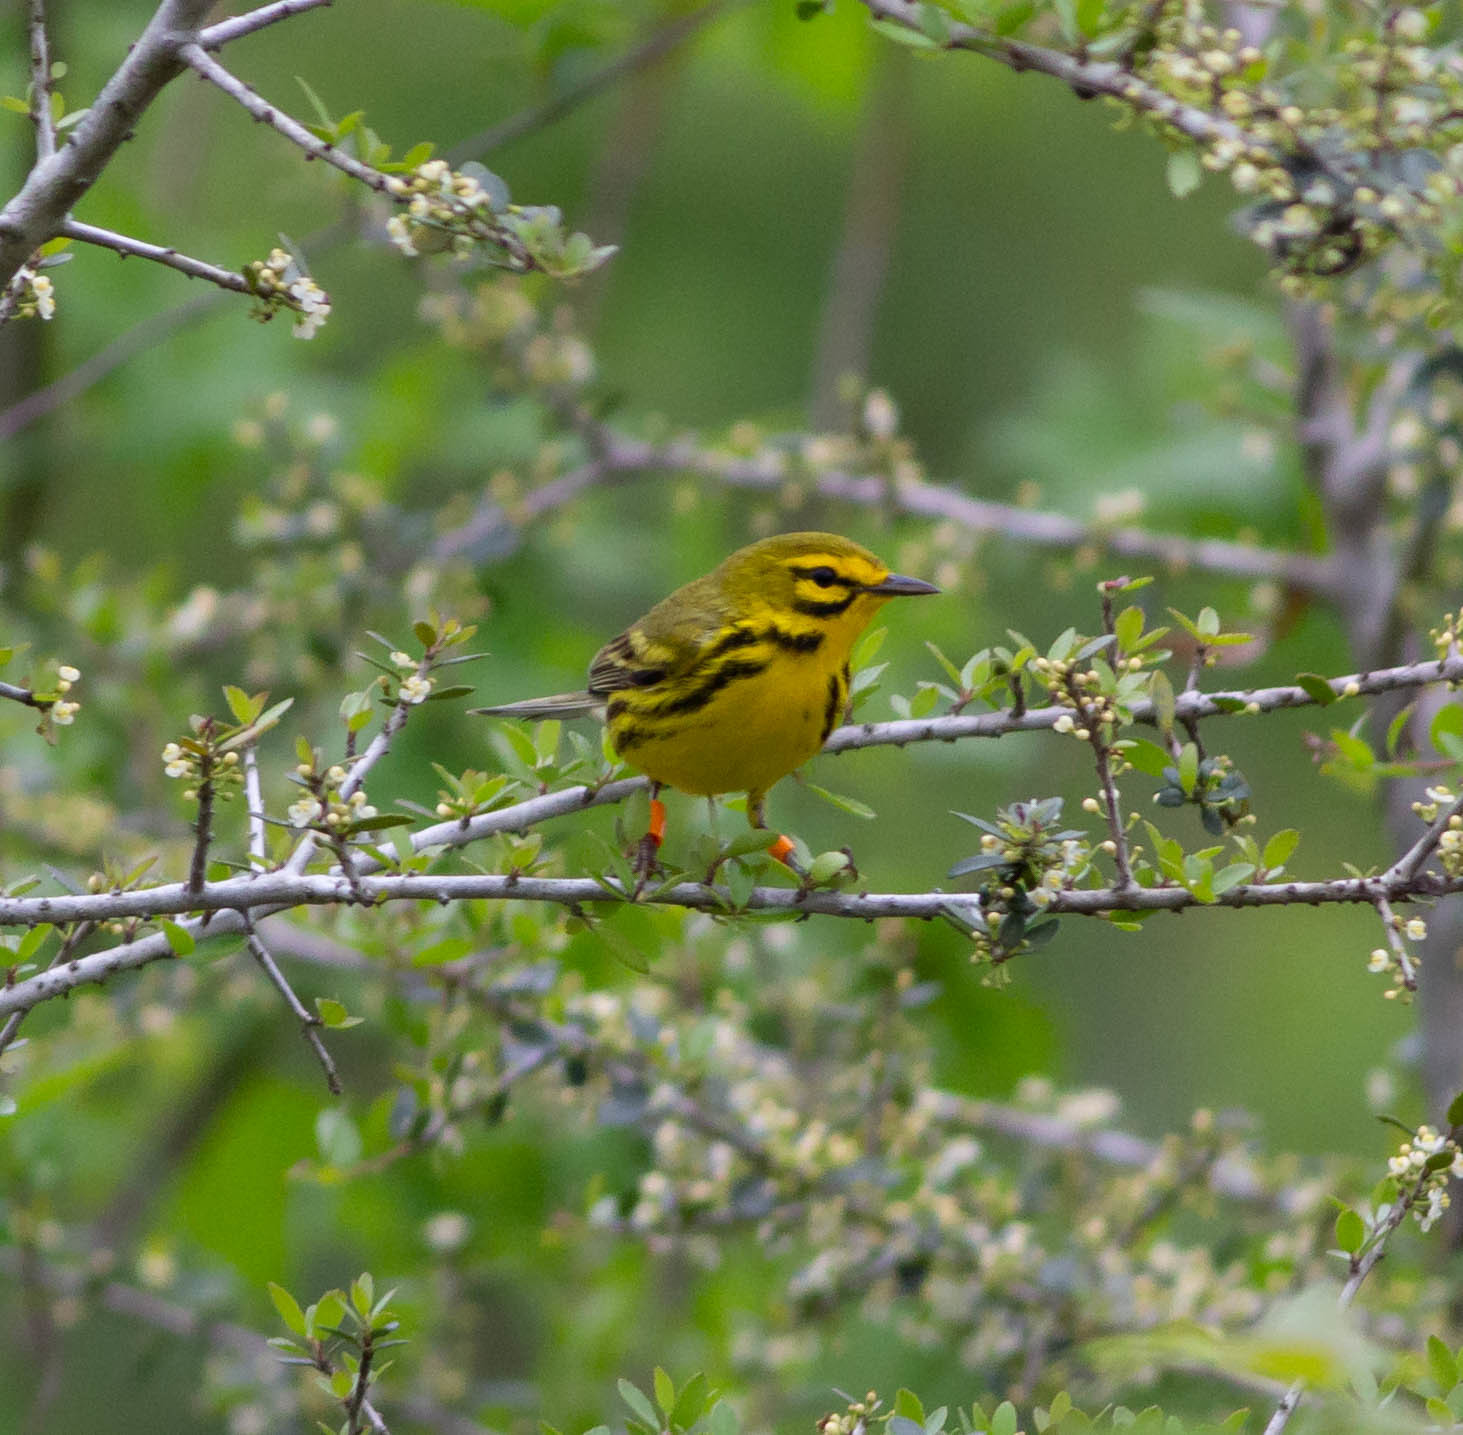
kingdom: Animalia
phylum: Chordata
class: Aves
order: Passeriformes
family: Parulidae
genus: Setophaga
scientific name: Setophaga discolor
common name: Prairie warbler
